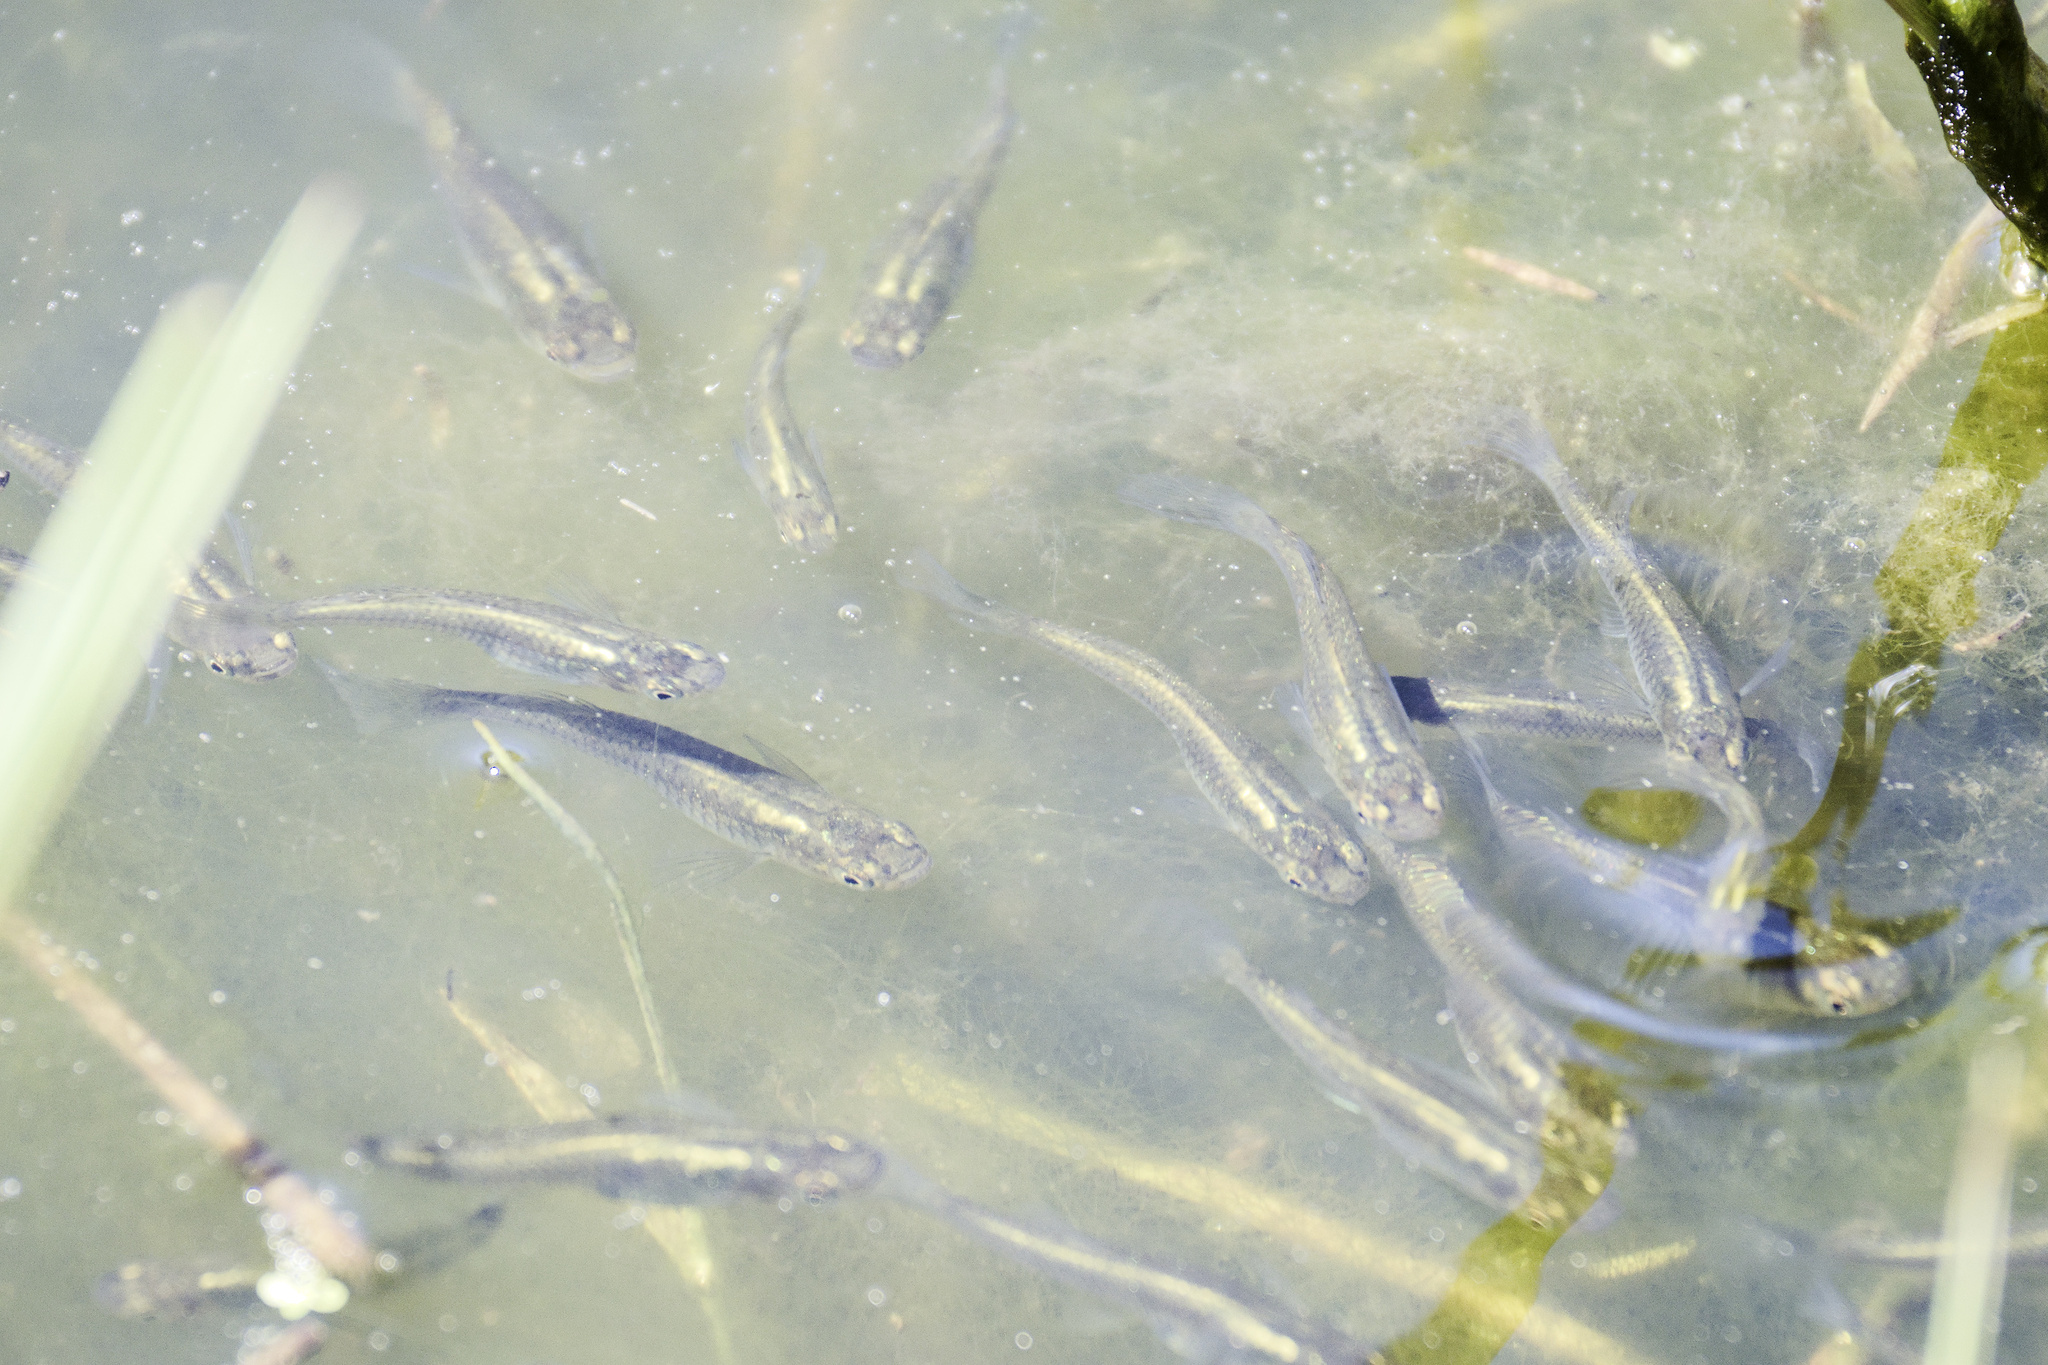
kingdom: Animalia
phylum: Chordata
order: Cyprinodontiformes
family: Poeciliidae
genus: Gambusia
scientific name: Gambusia holbrooki
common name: Eastern mosquitofish
